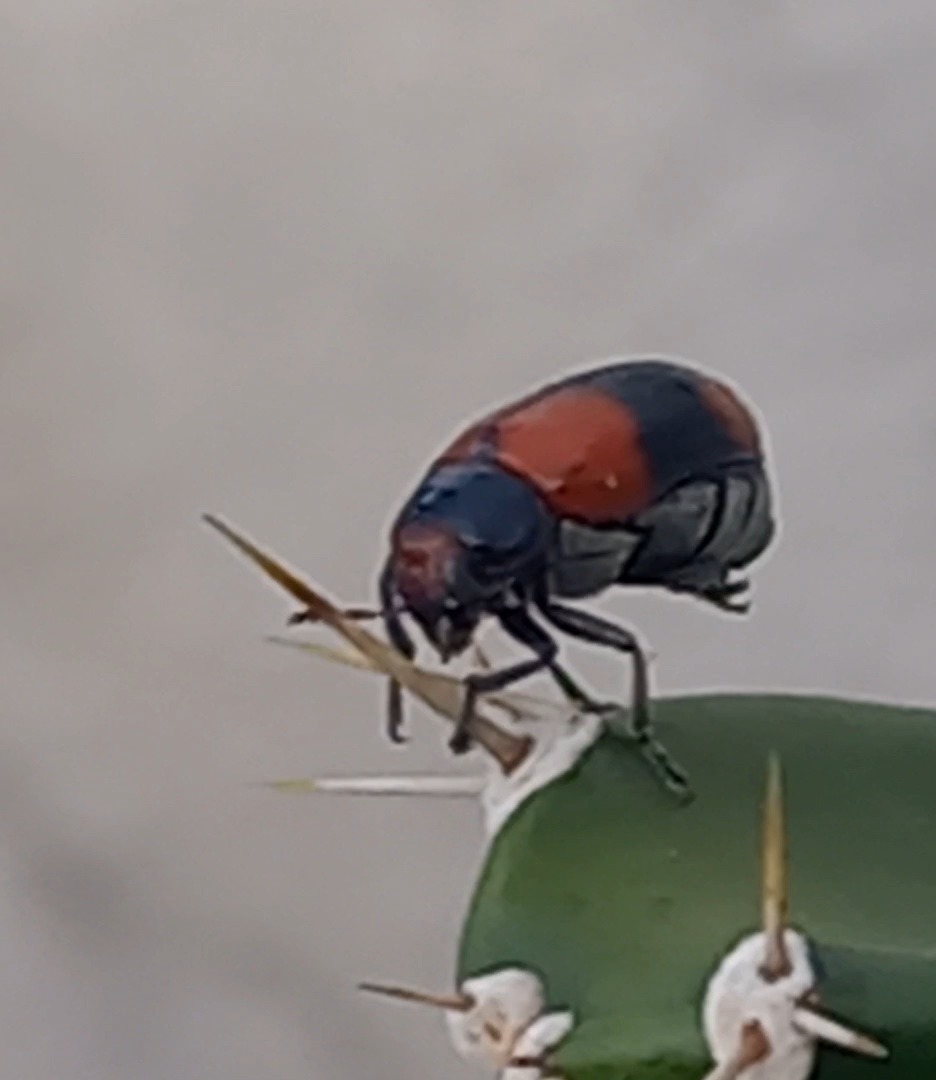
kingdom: Animalia
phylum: Arthropoda
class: Insecta
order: Coleoptera
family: Chrysomelidae
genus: Anomoea
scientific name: Anomoea rufifrons
